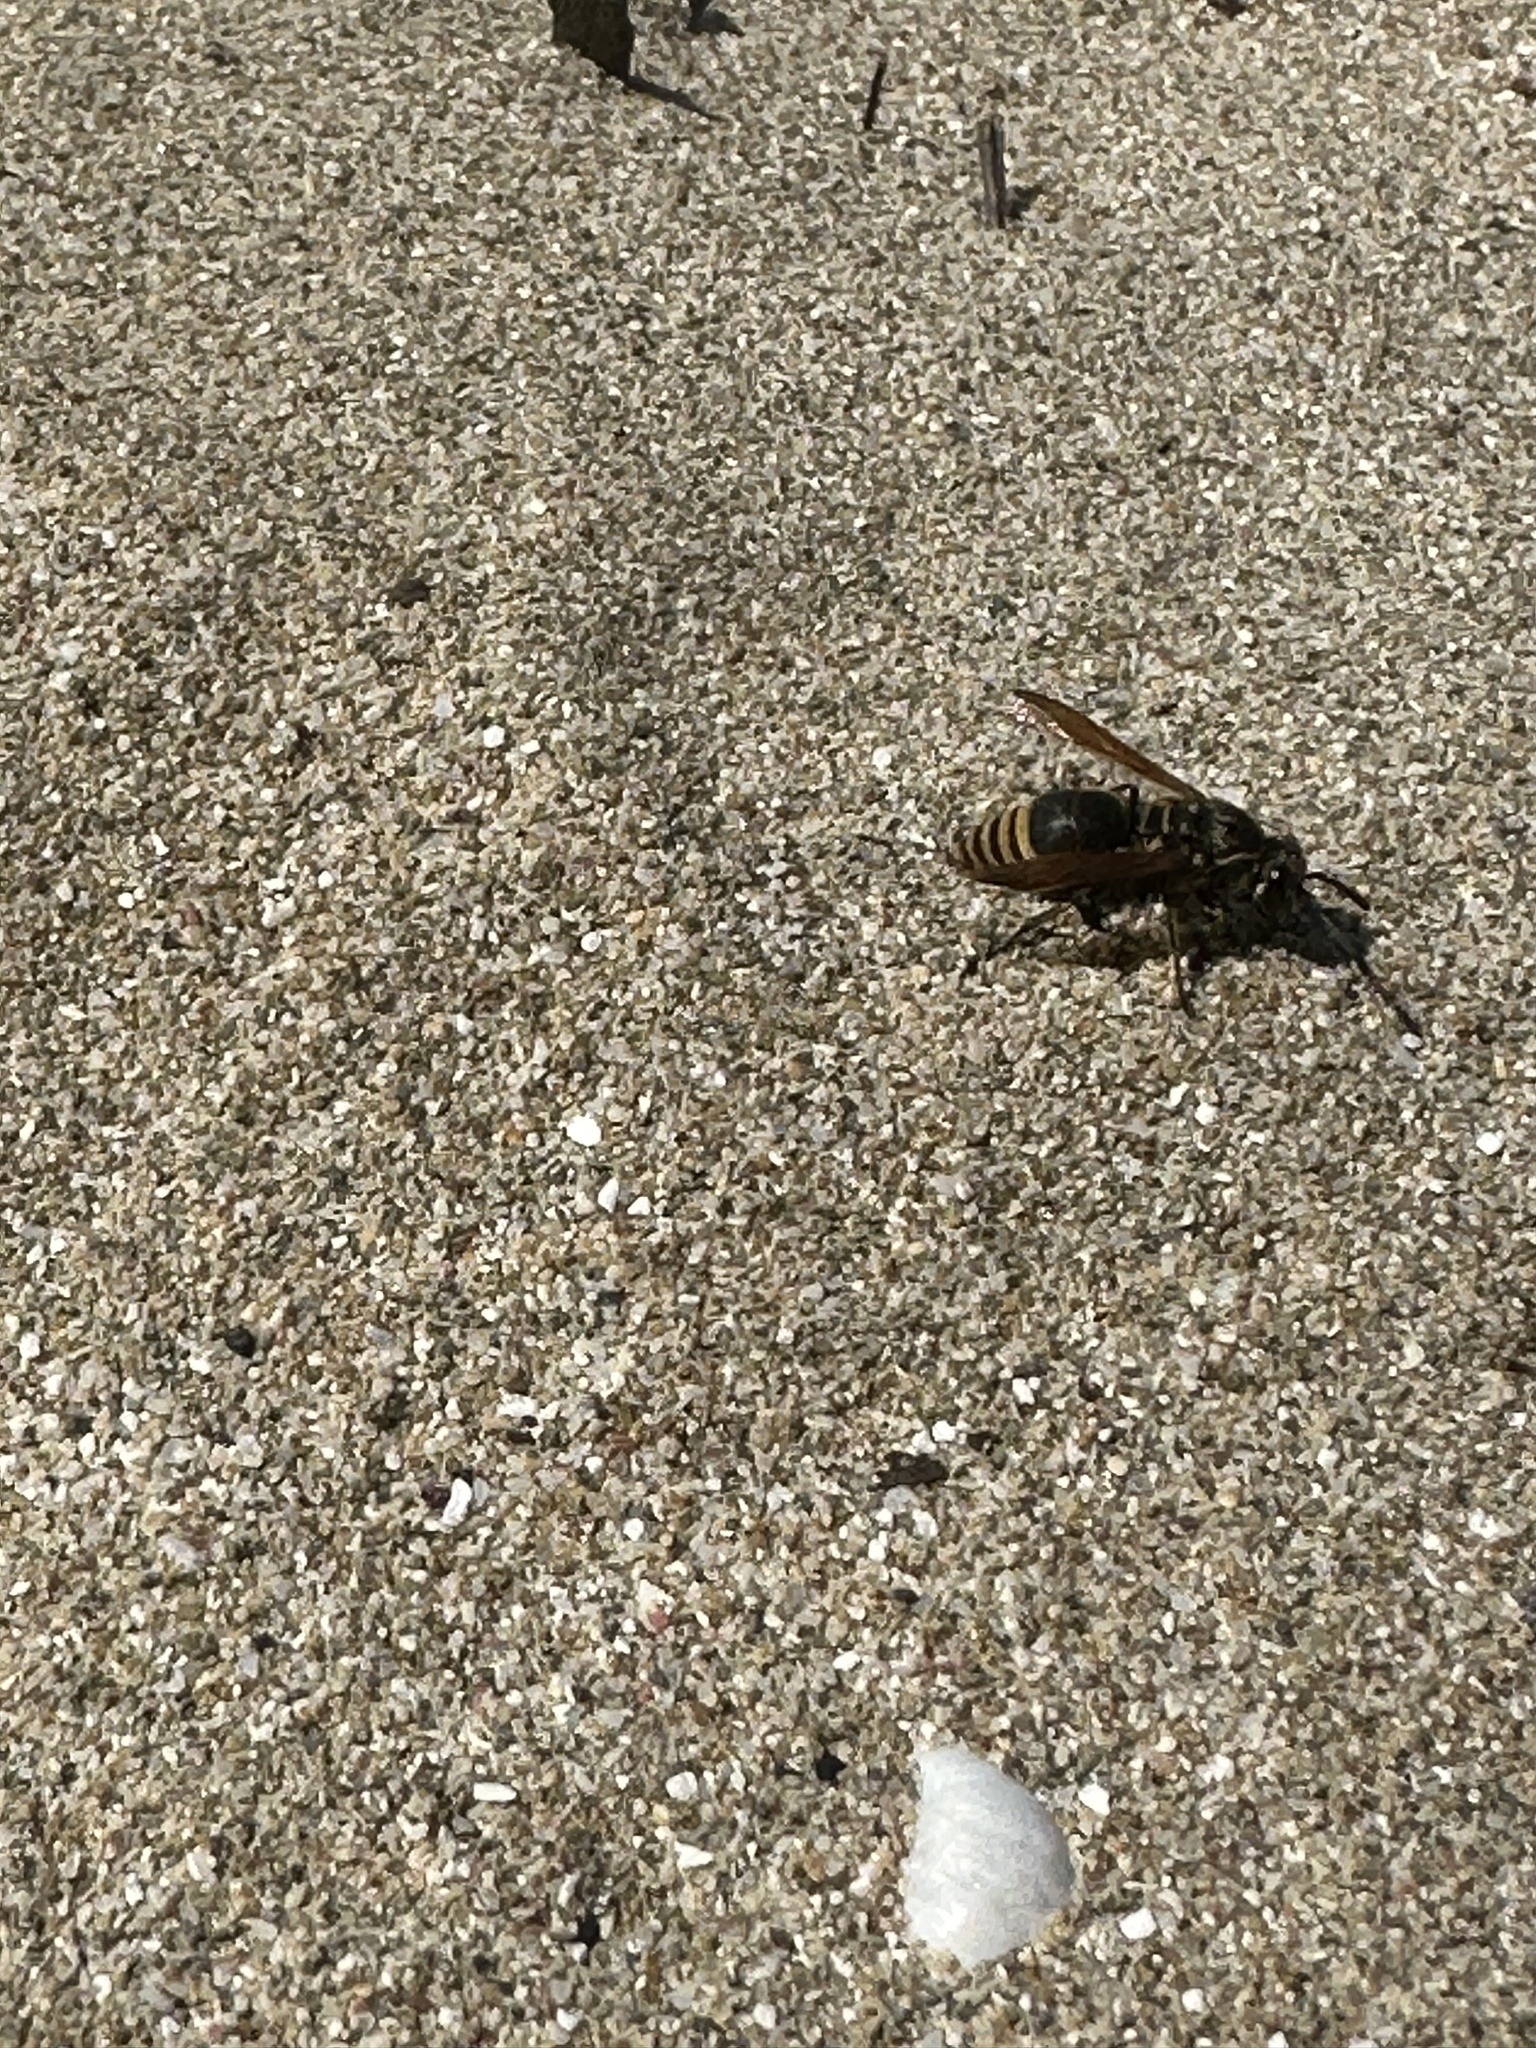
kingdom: Animalia
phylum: Arthropoda
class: Insecta
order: Hymenoptera
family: Eumenidae
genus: Pachodynerus
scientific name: Pachodynerus nasidens
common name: Key hole wasp
